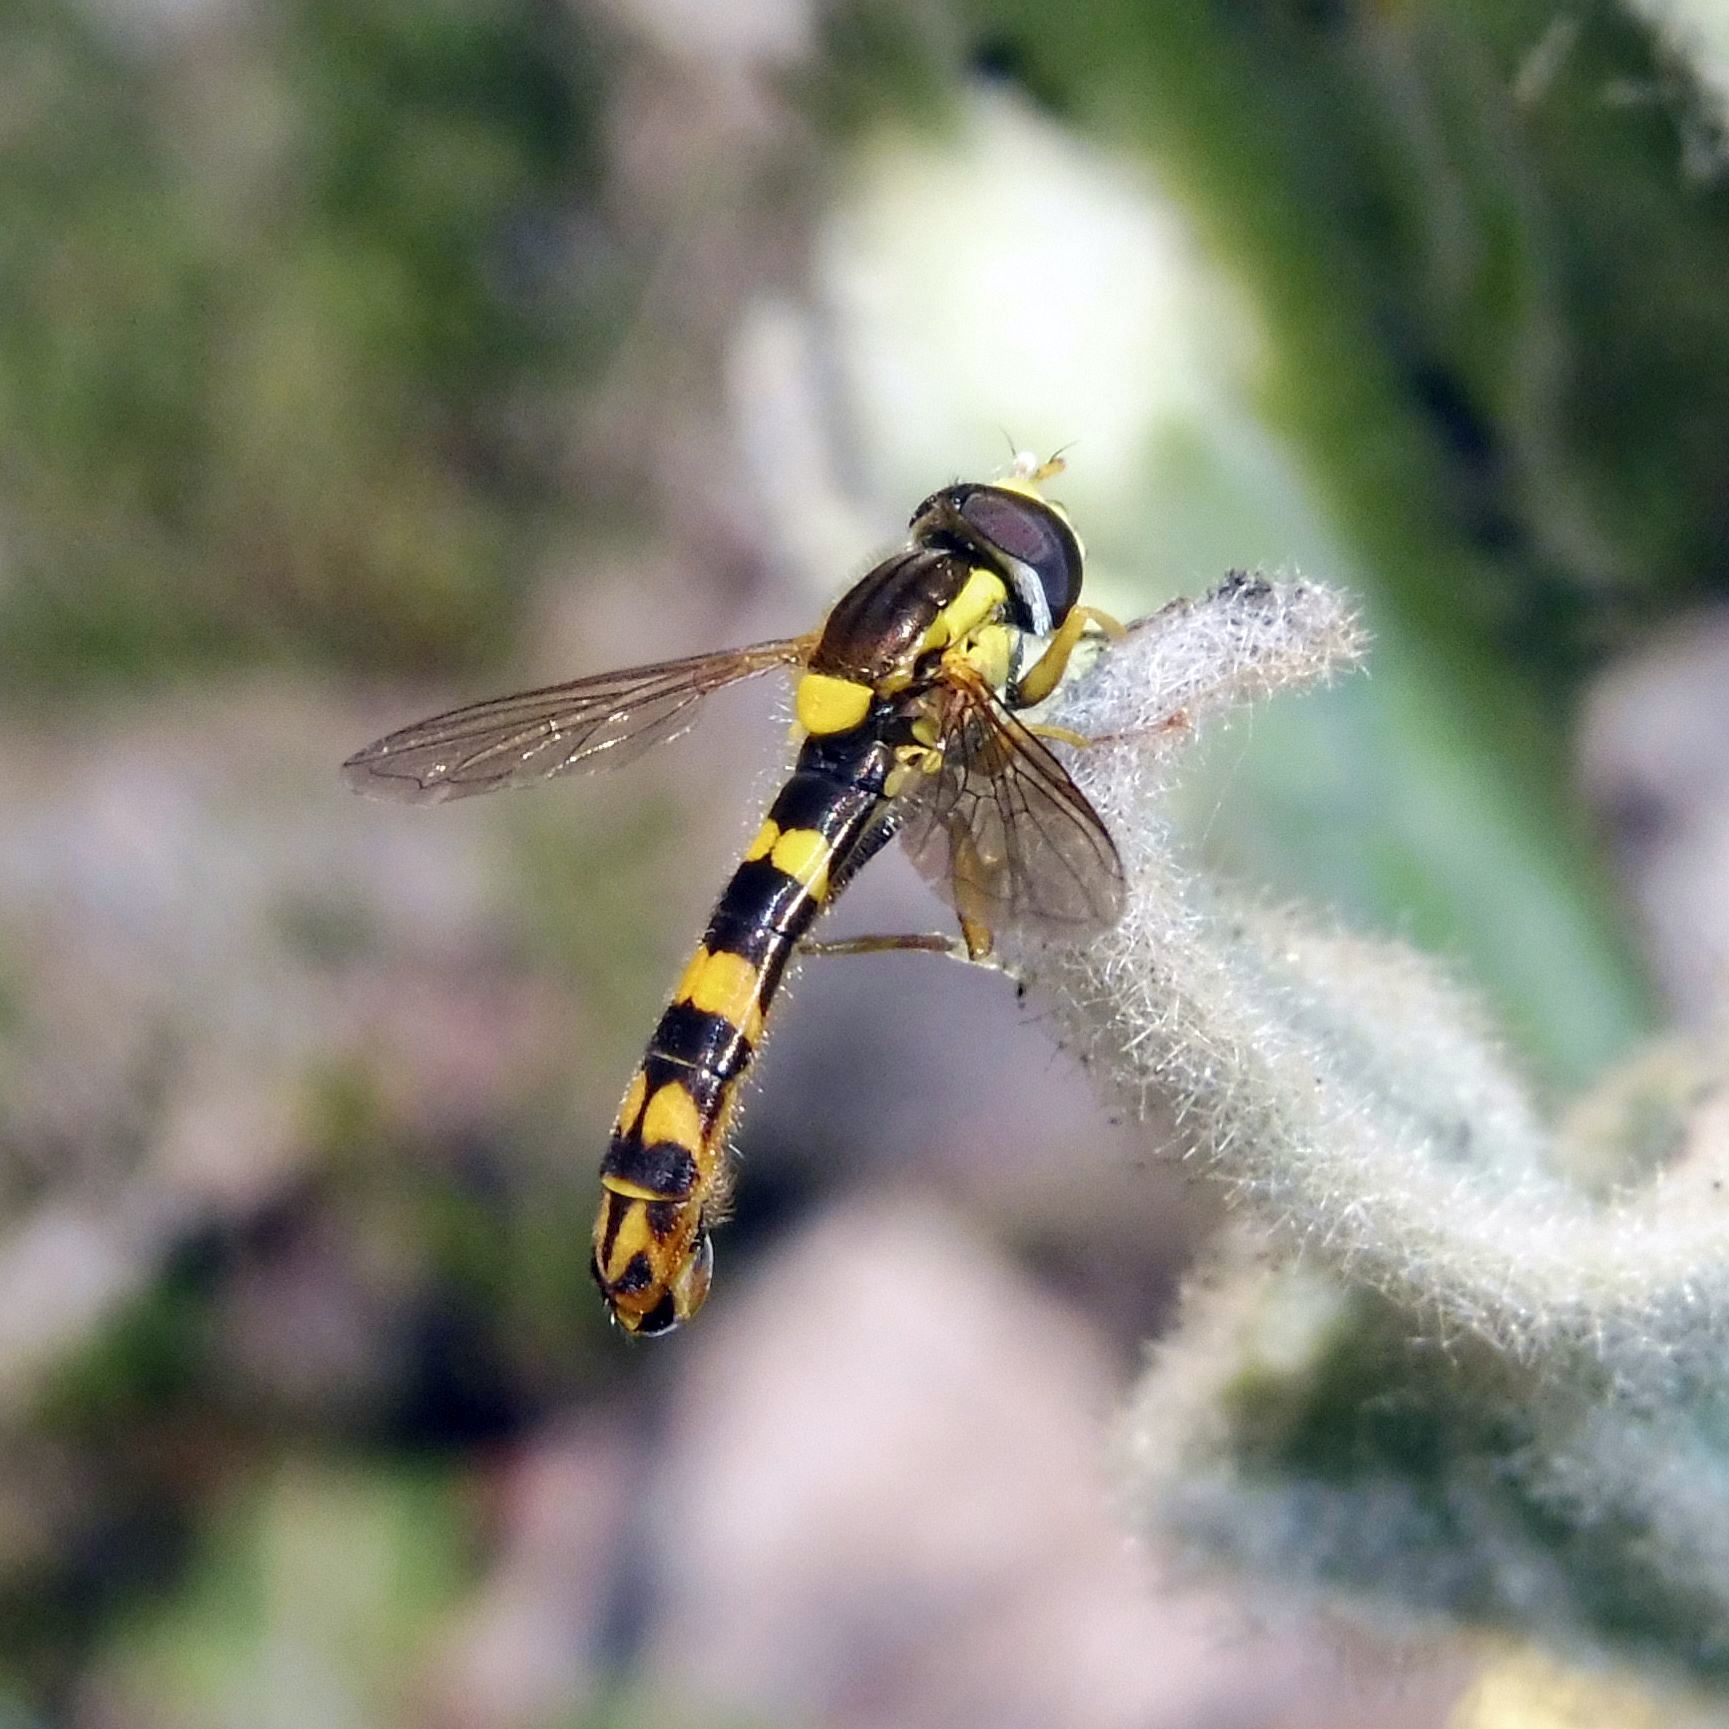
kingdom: Animalia
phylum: Arthropoda
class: Insecta
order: Diptera
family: Syrphidae
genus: Sphaerophoria
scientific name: Sphaerophoria scripta
